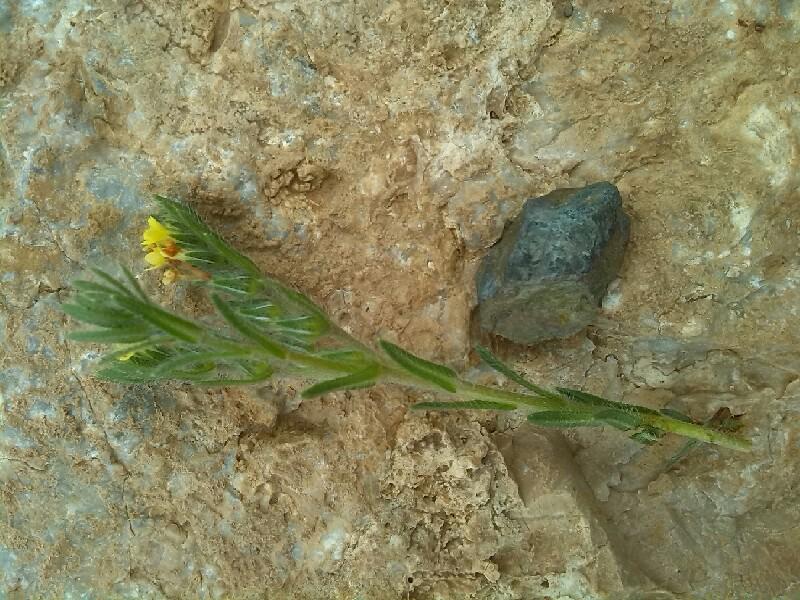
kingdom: Plantae
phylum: Tracheophyta
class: Magnoliopsida
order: Boraginales
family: Boraginaceae
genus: Neatostema
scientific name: Neatostema apulum
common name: Hairy sheepweed
